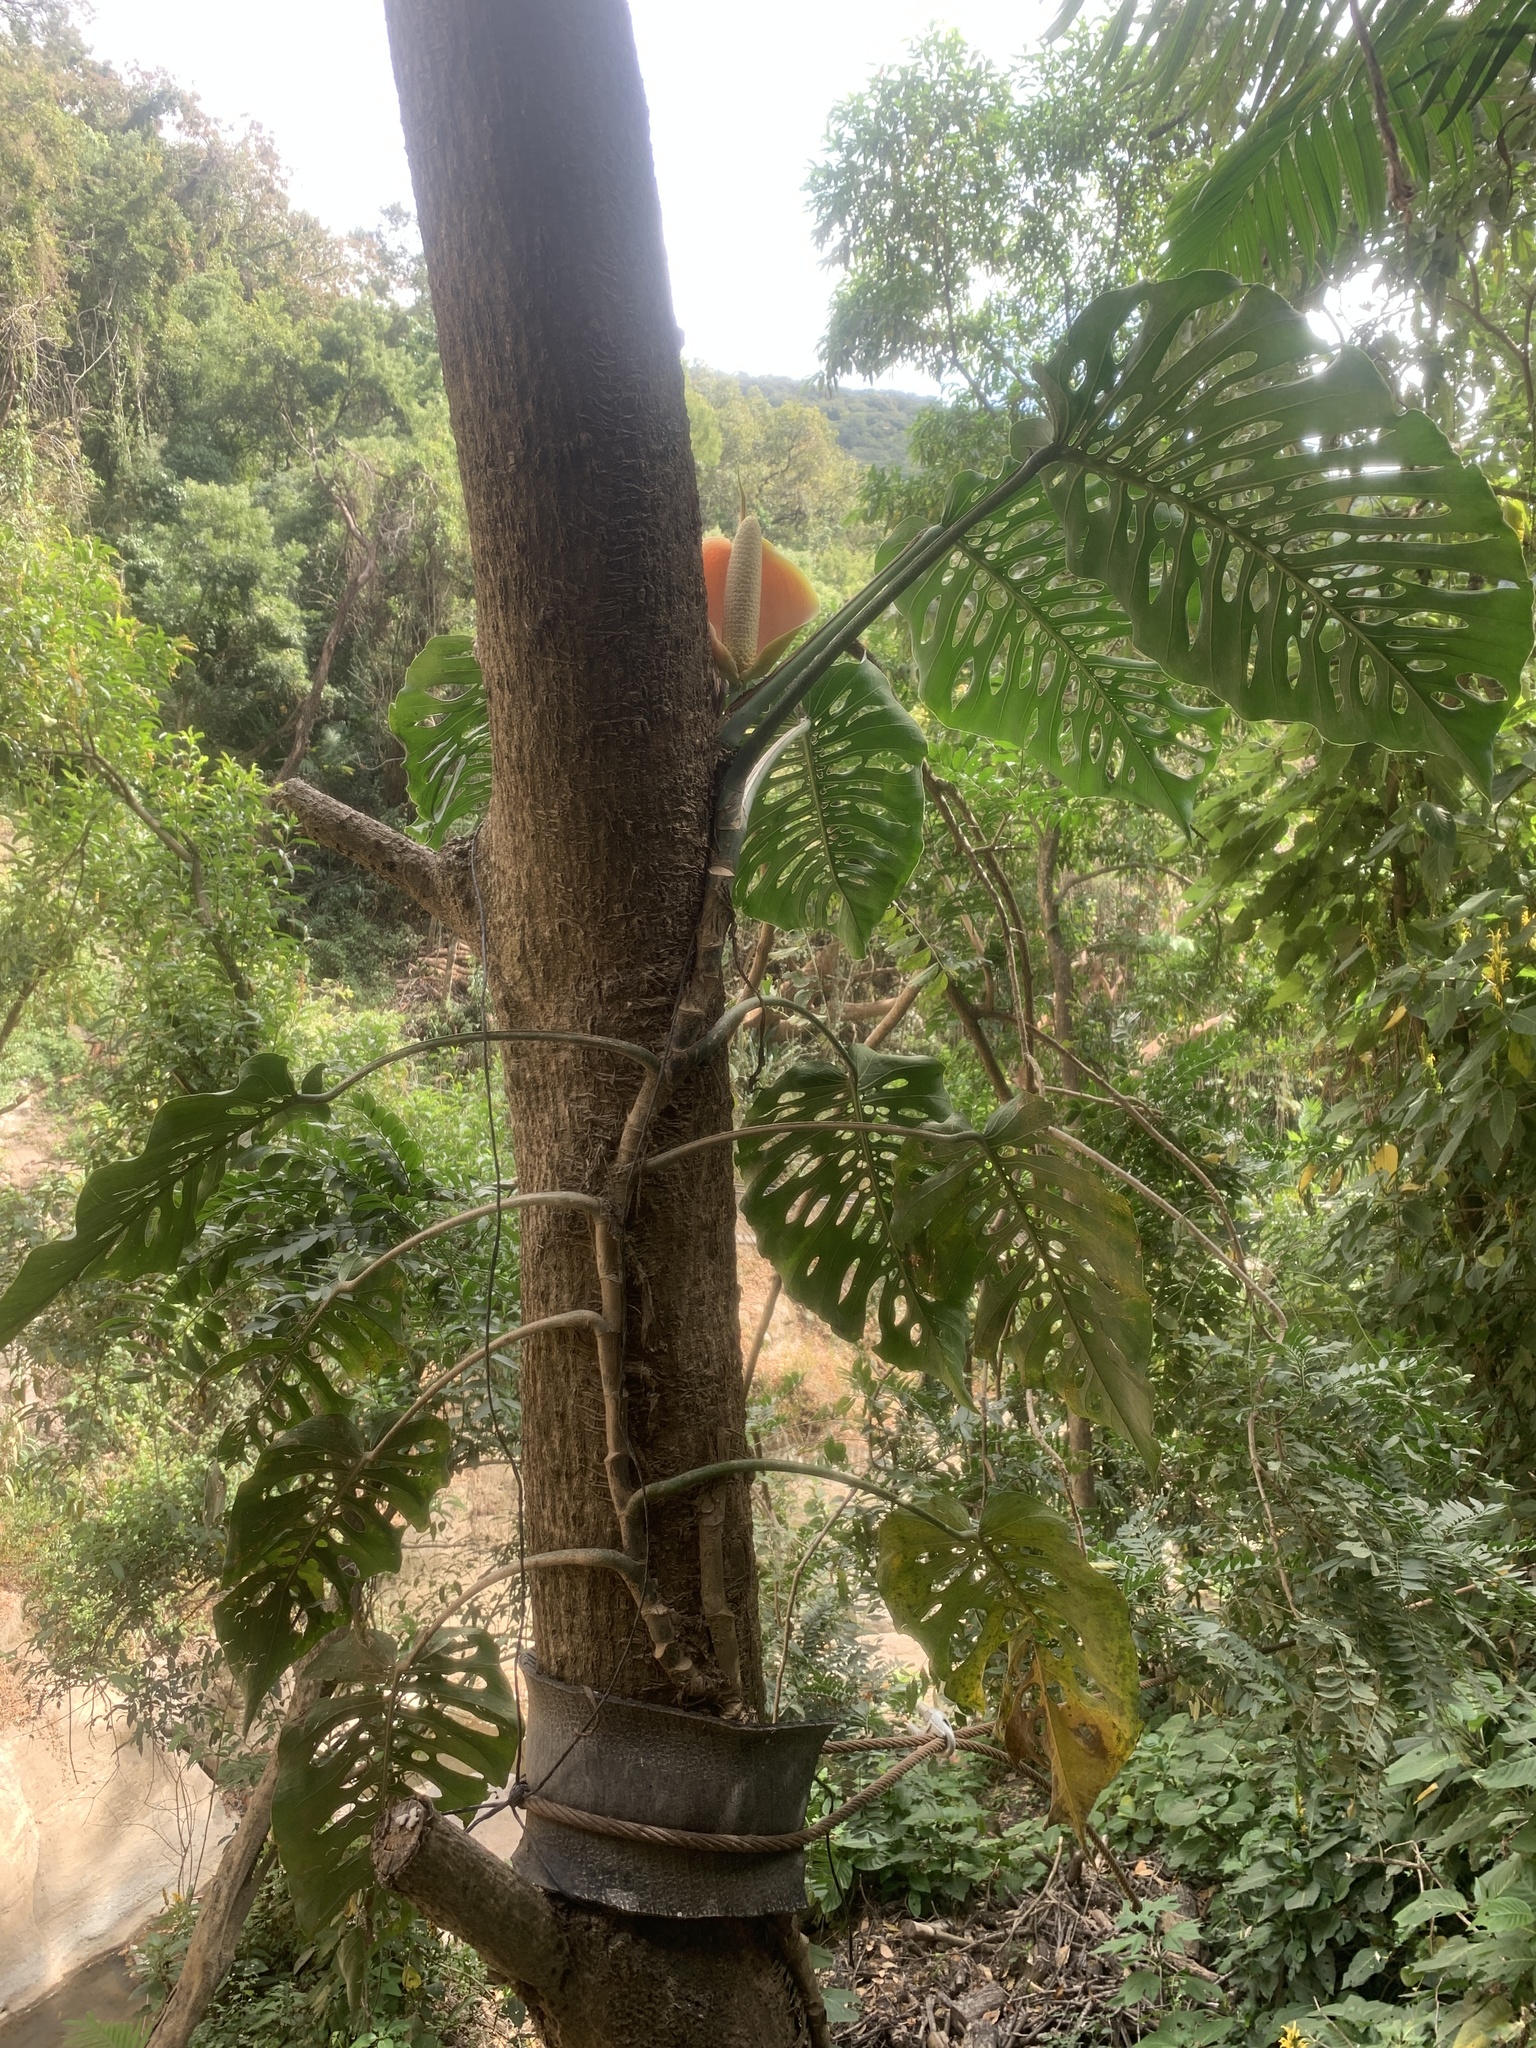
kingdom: Plantae
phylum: Tracheophyta
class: Liliopsida
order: Alismatales
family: Araceae
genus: Monstera
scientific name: Monstera siltepecana
